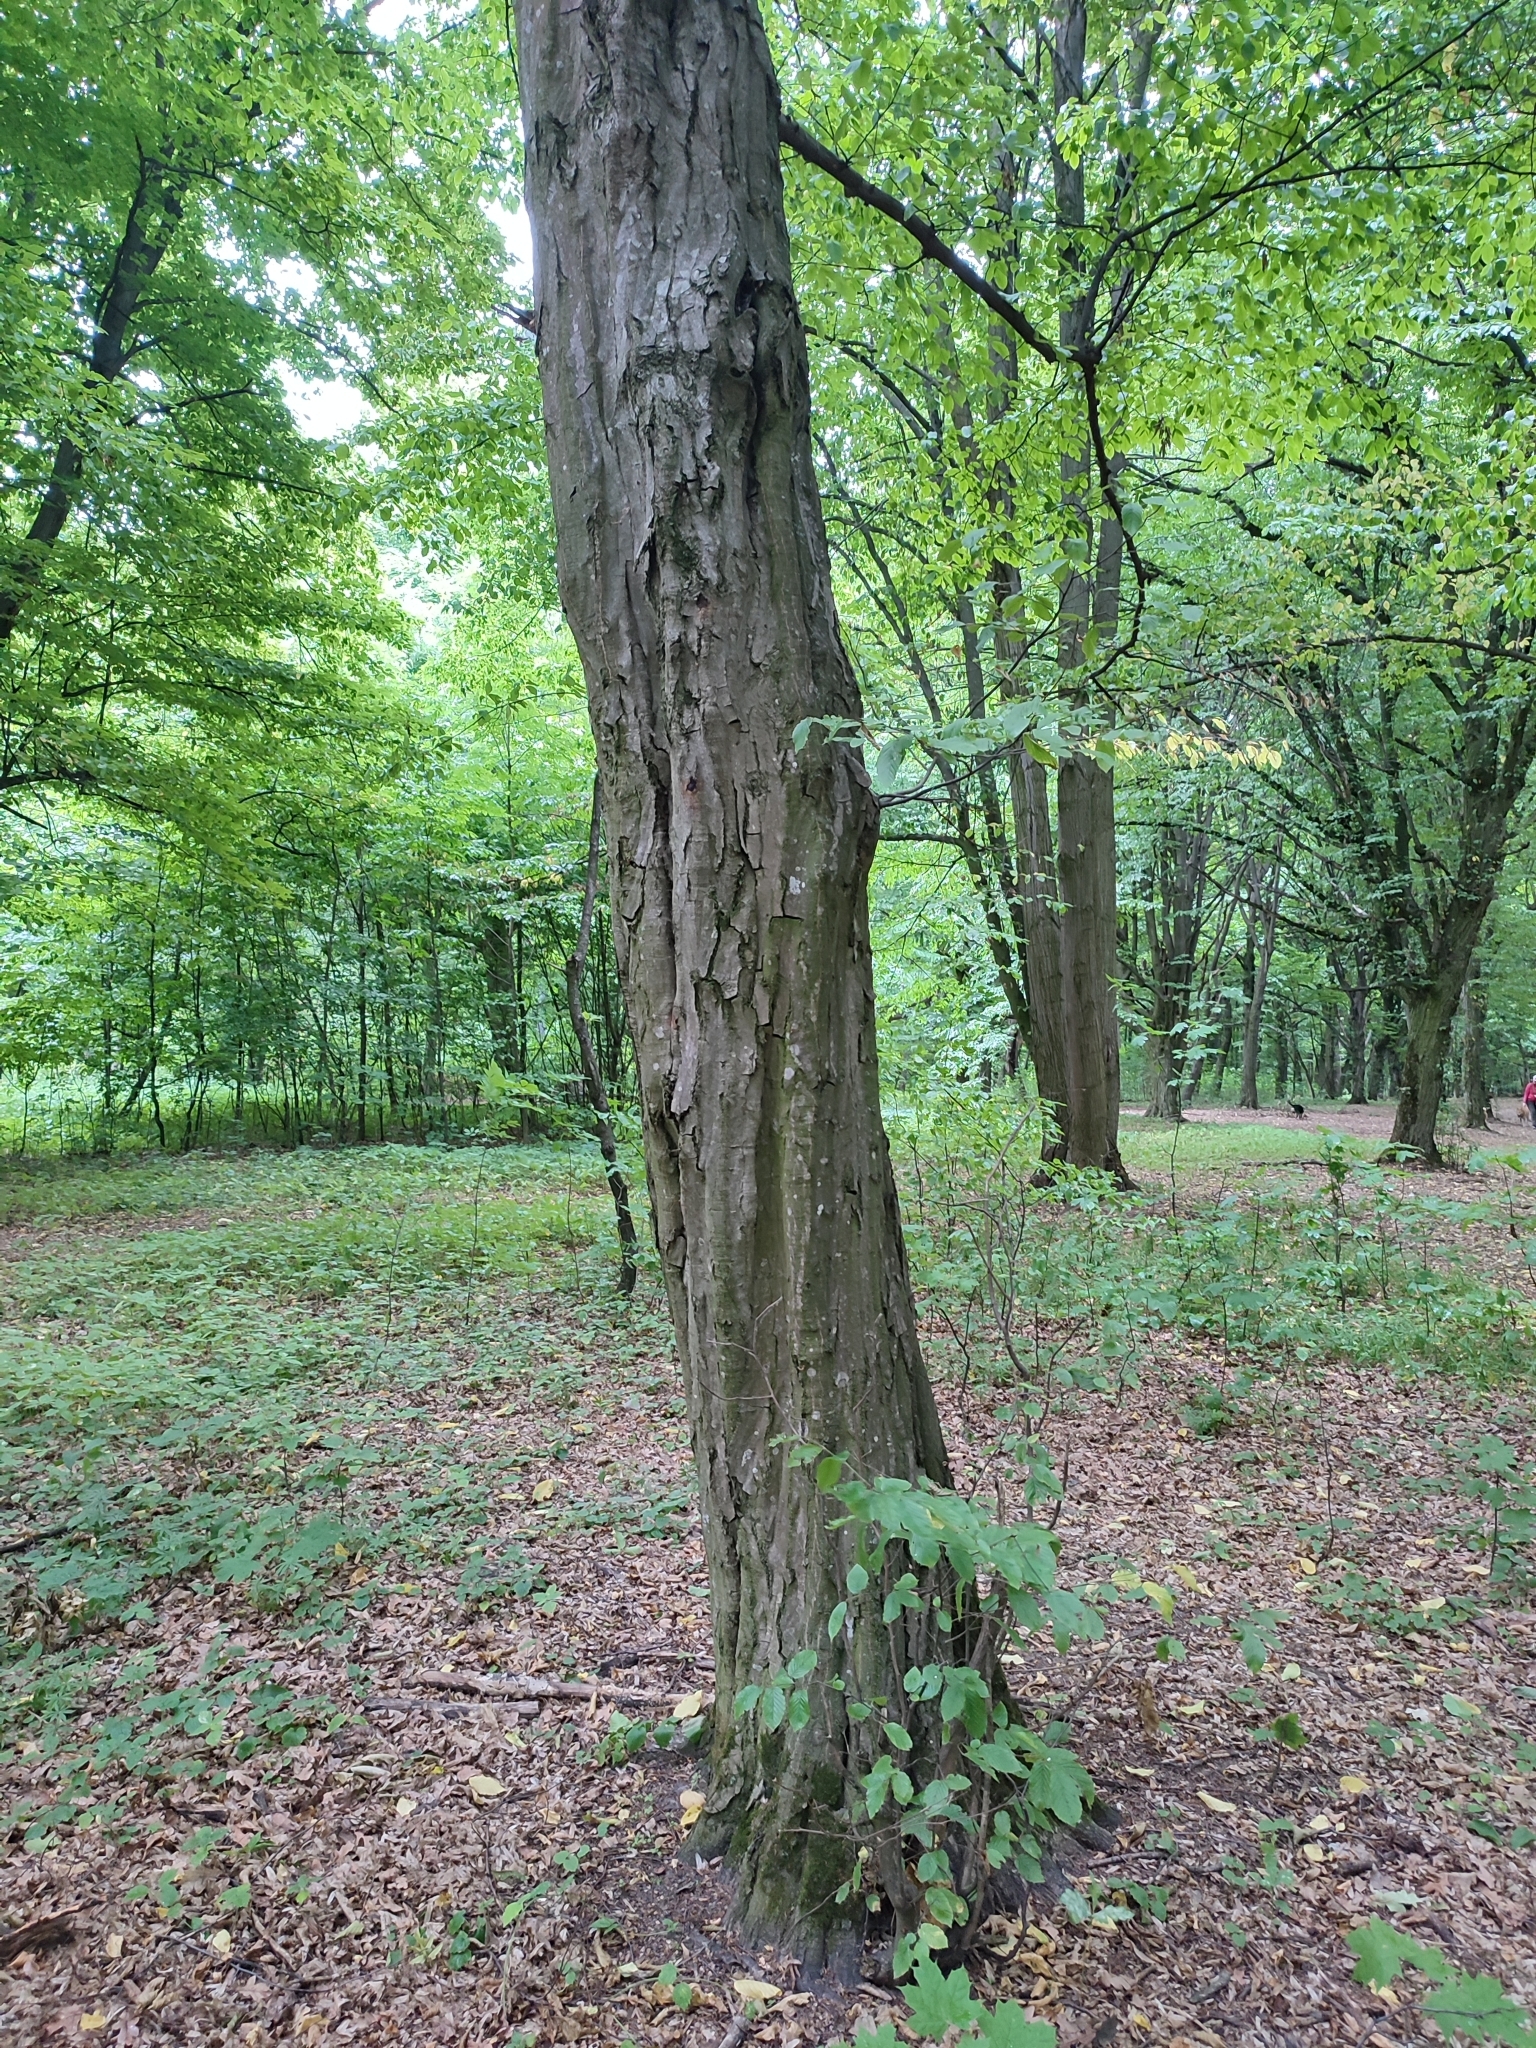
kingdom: Plantae
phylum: Tracheophyta
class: Magnoliopsida
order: Fagales
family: Betulaceae
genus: Carpinus
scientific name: Carpinus betulus
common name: Hornbeam
